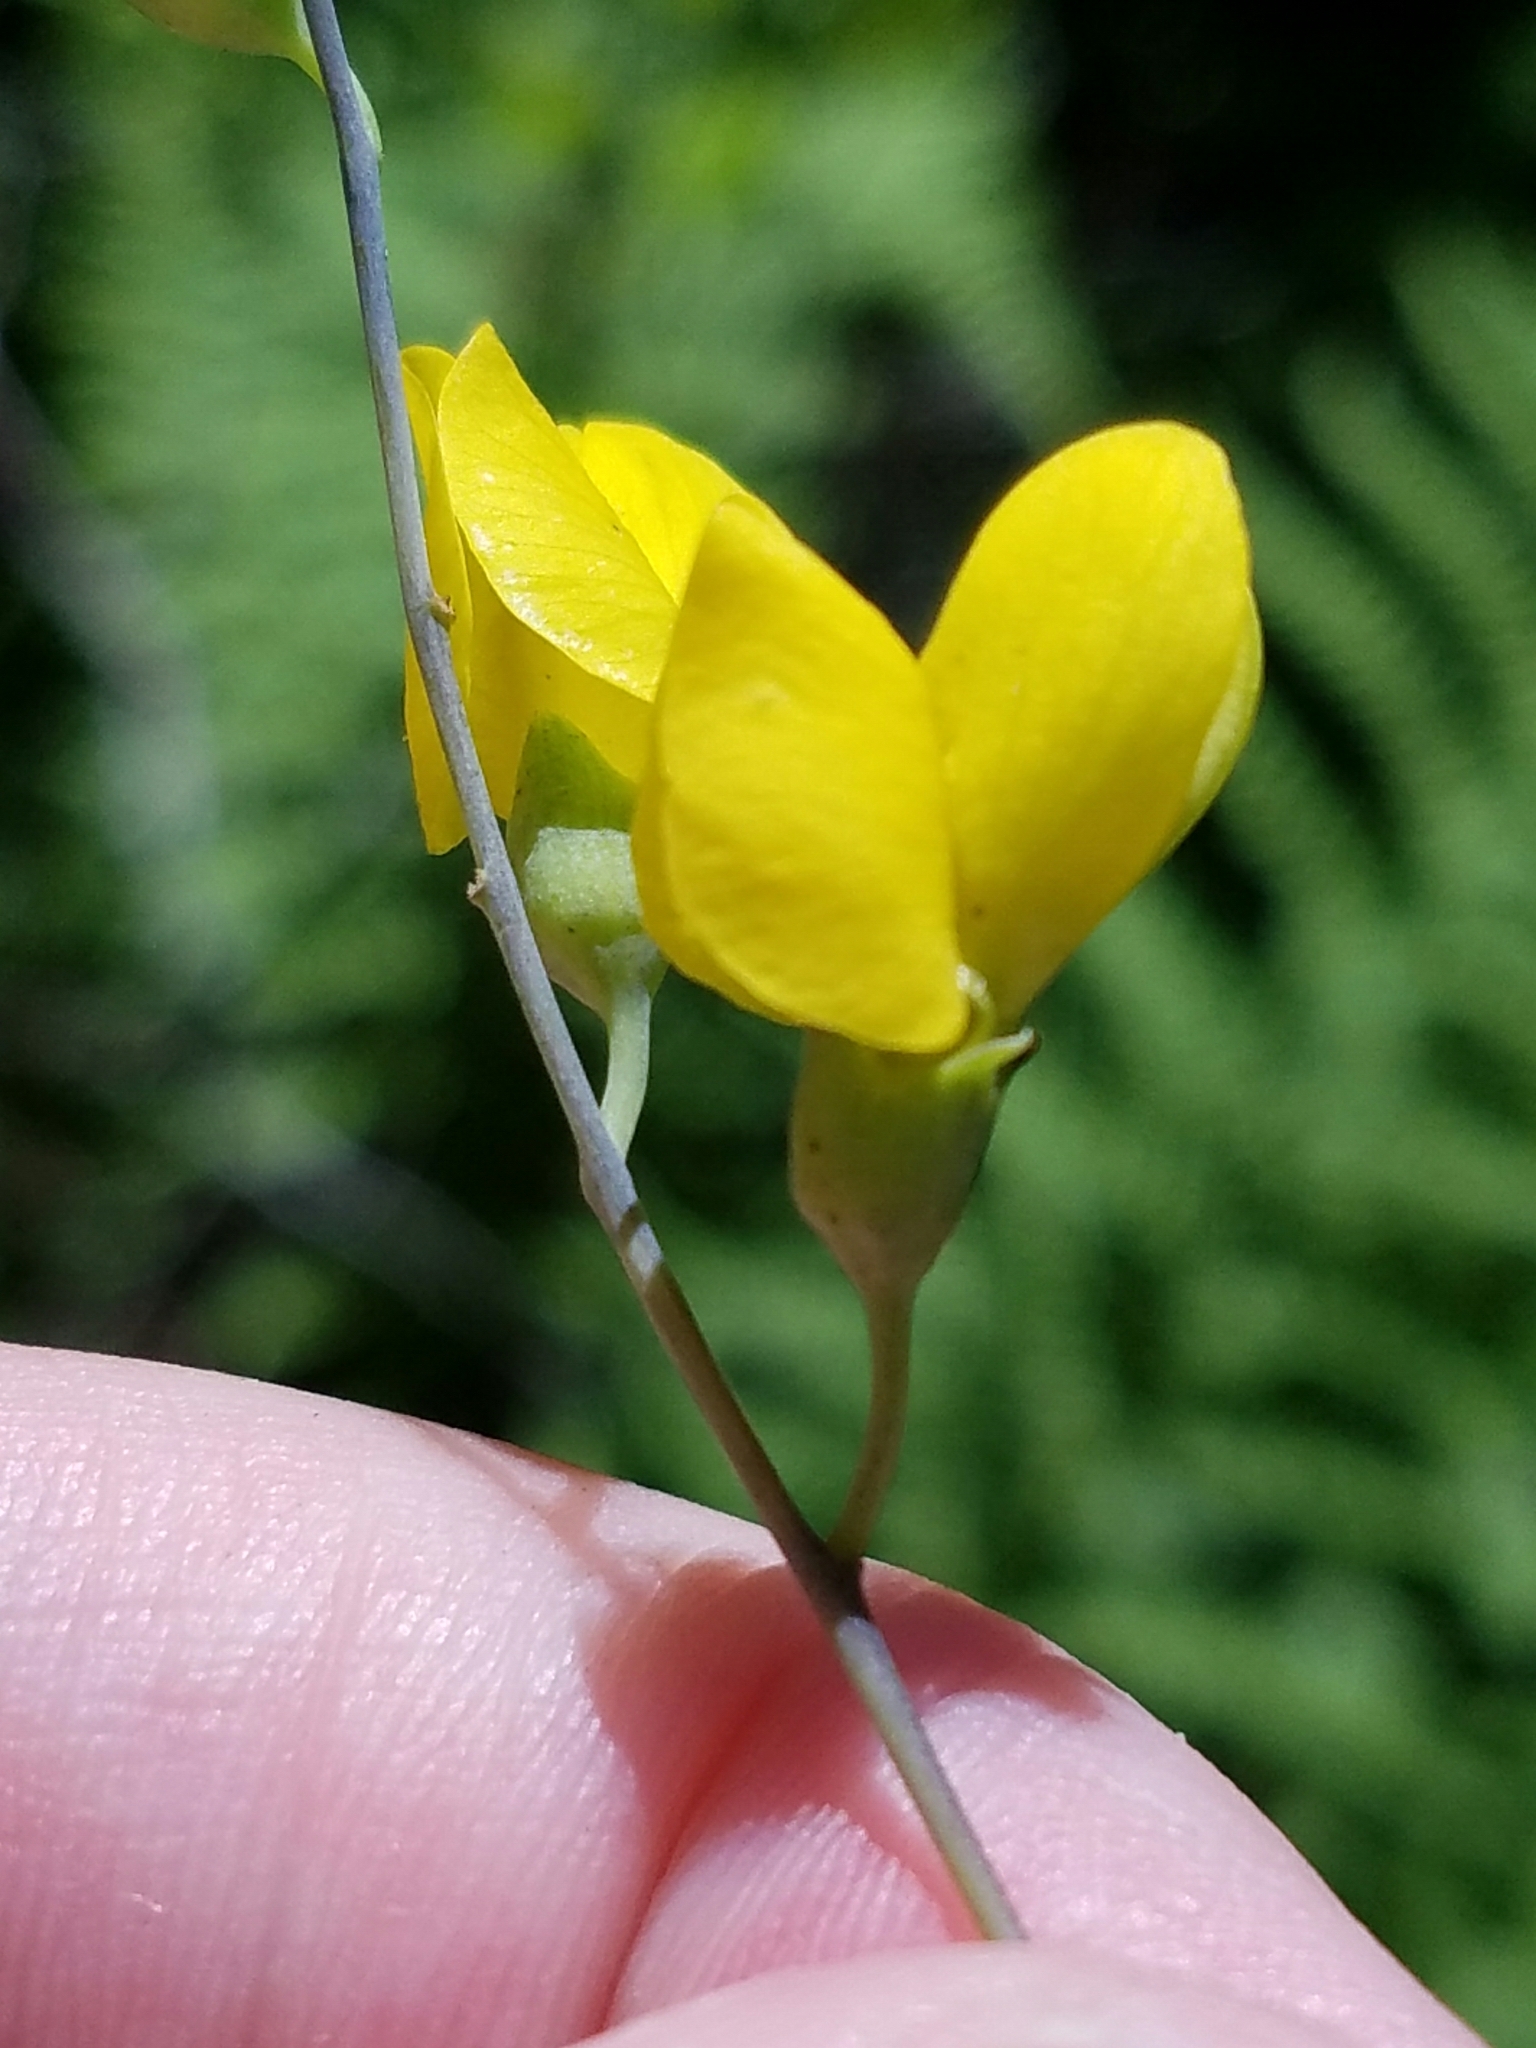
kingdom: Plantae
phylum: Tracheophyta
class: Magnoliopsida
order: Fabales
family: Fabaceae
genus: Baptisia
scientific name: Baptisia tinctoria
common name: Wild indigo
